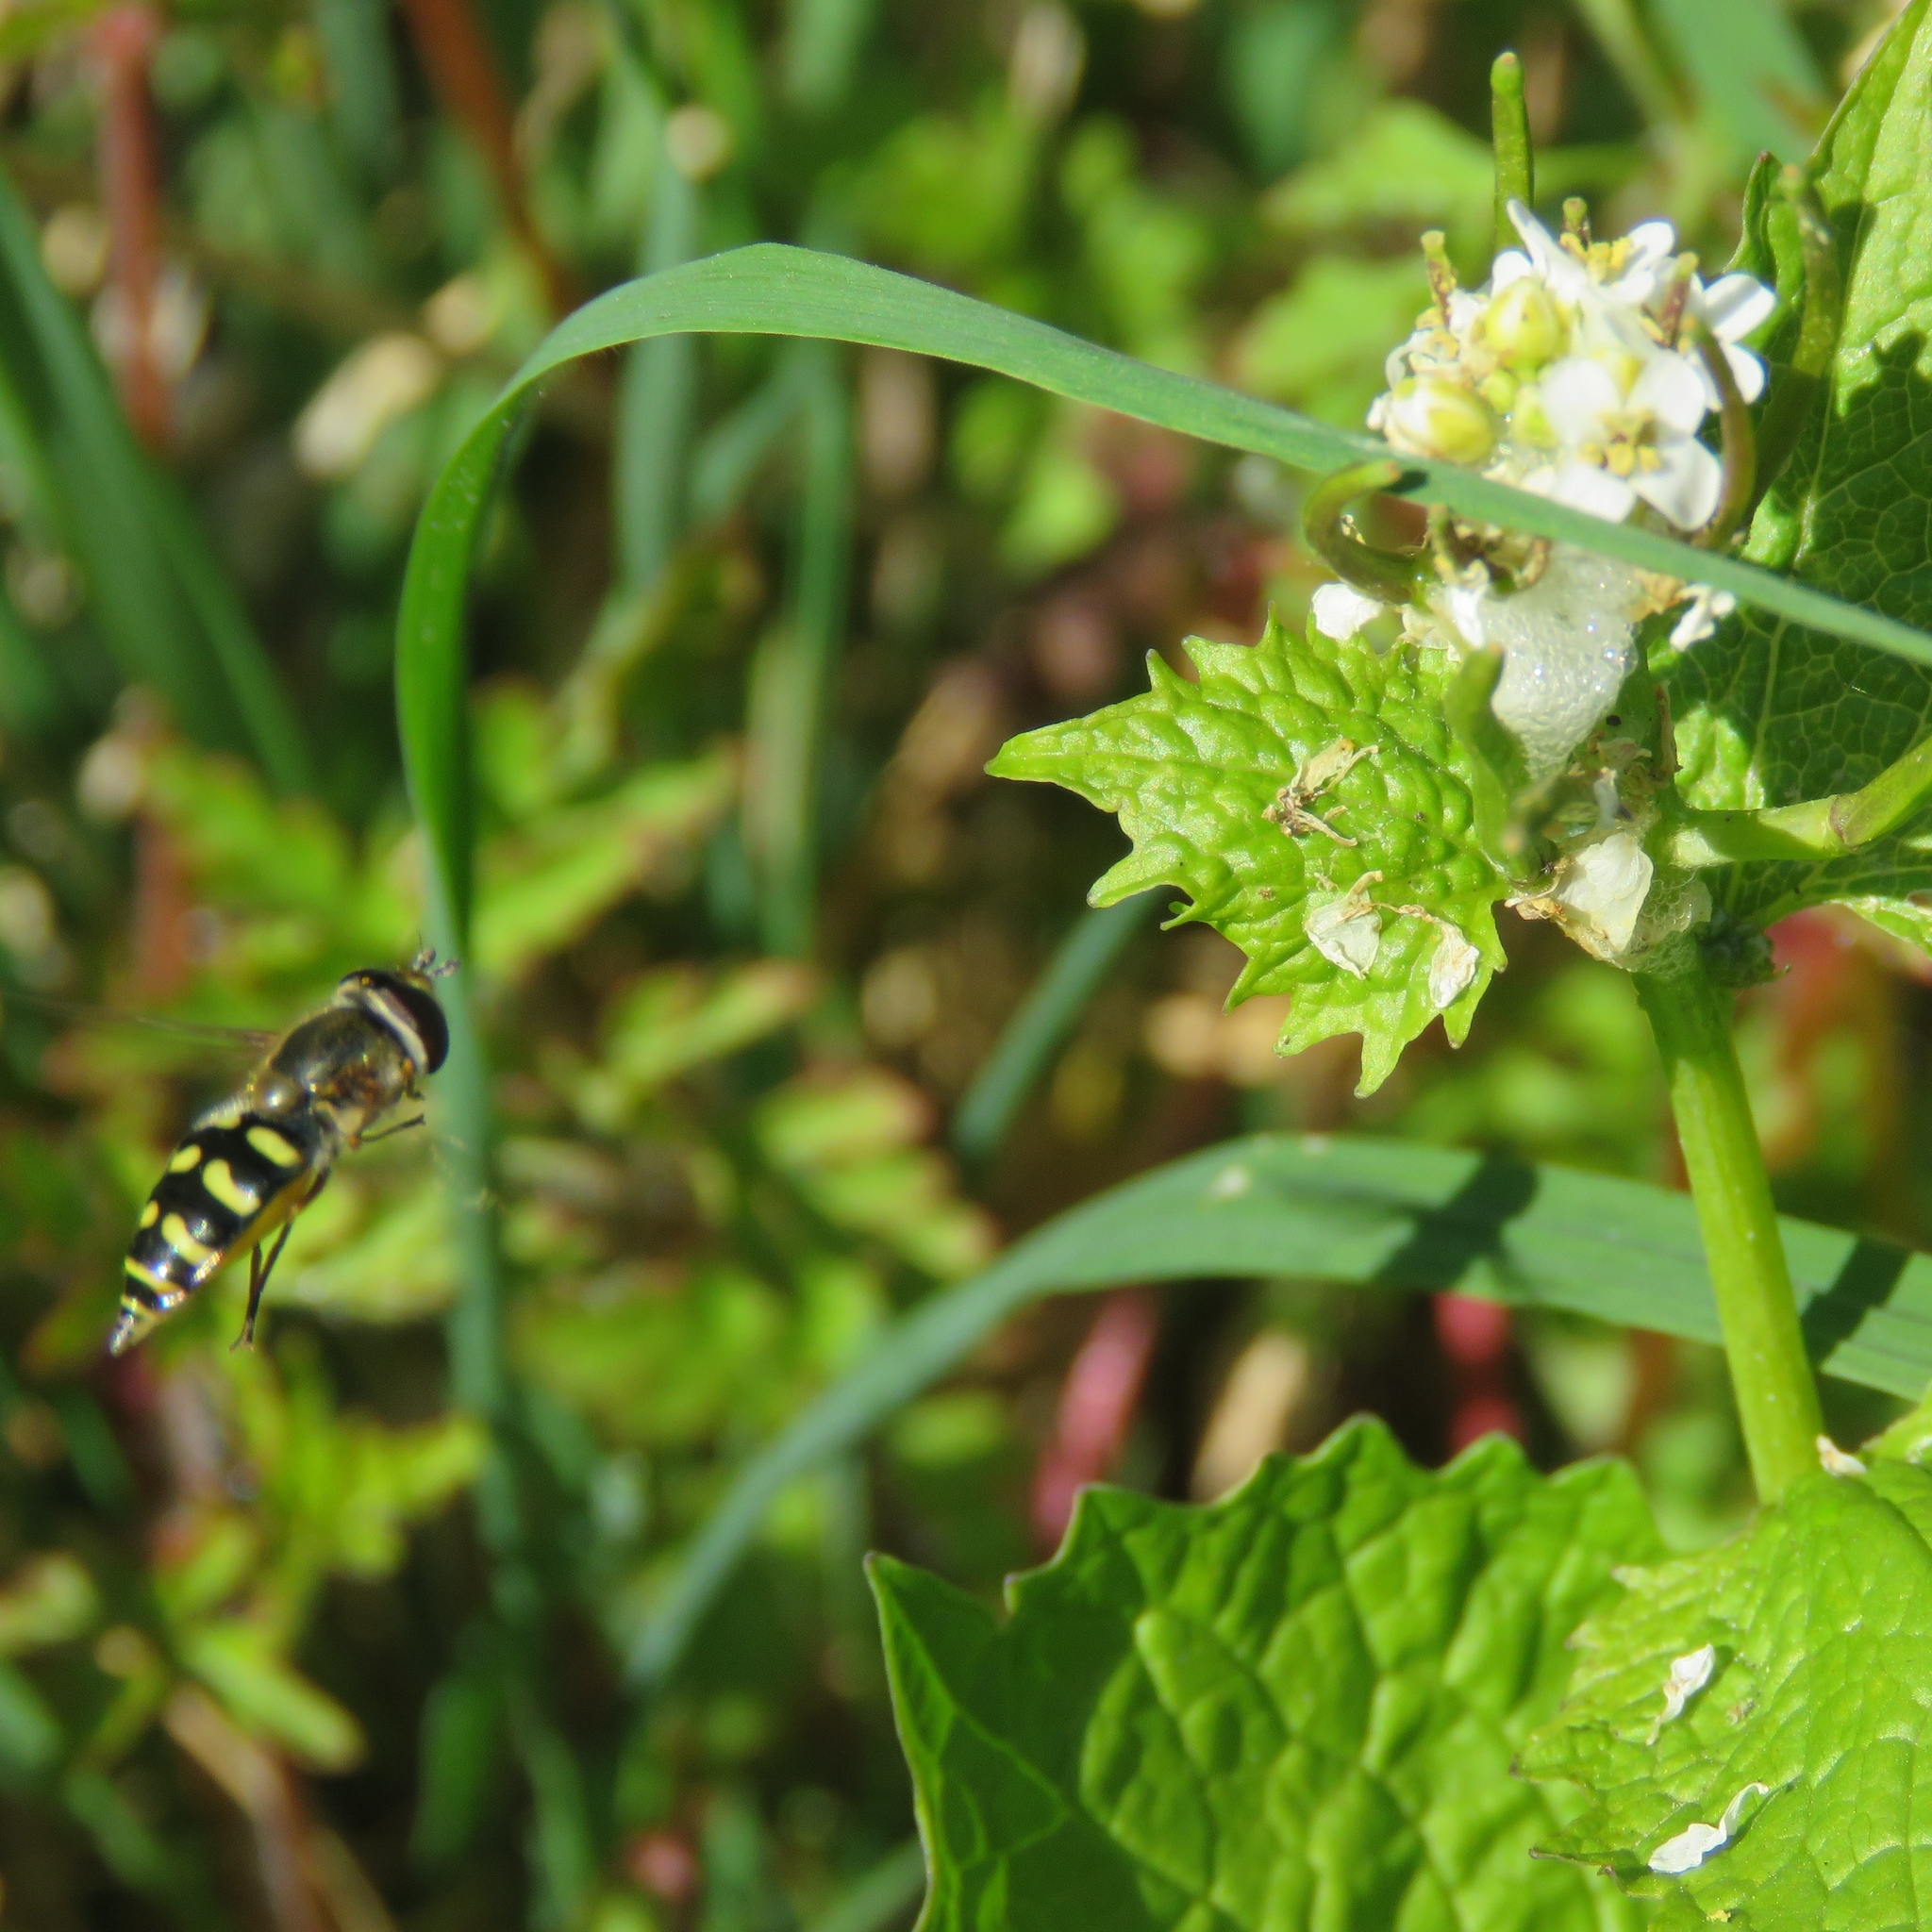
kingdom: Plantae
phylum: Tracheophyta
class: Magnoliopsida
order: Brassicales
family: Brassicaceae
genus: Alliaria
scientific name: Alliaria petiolata
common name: Garlic mustard
